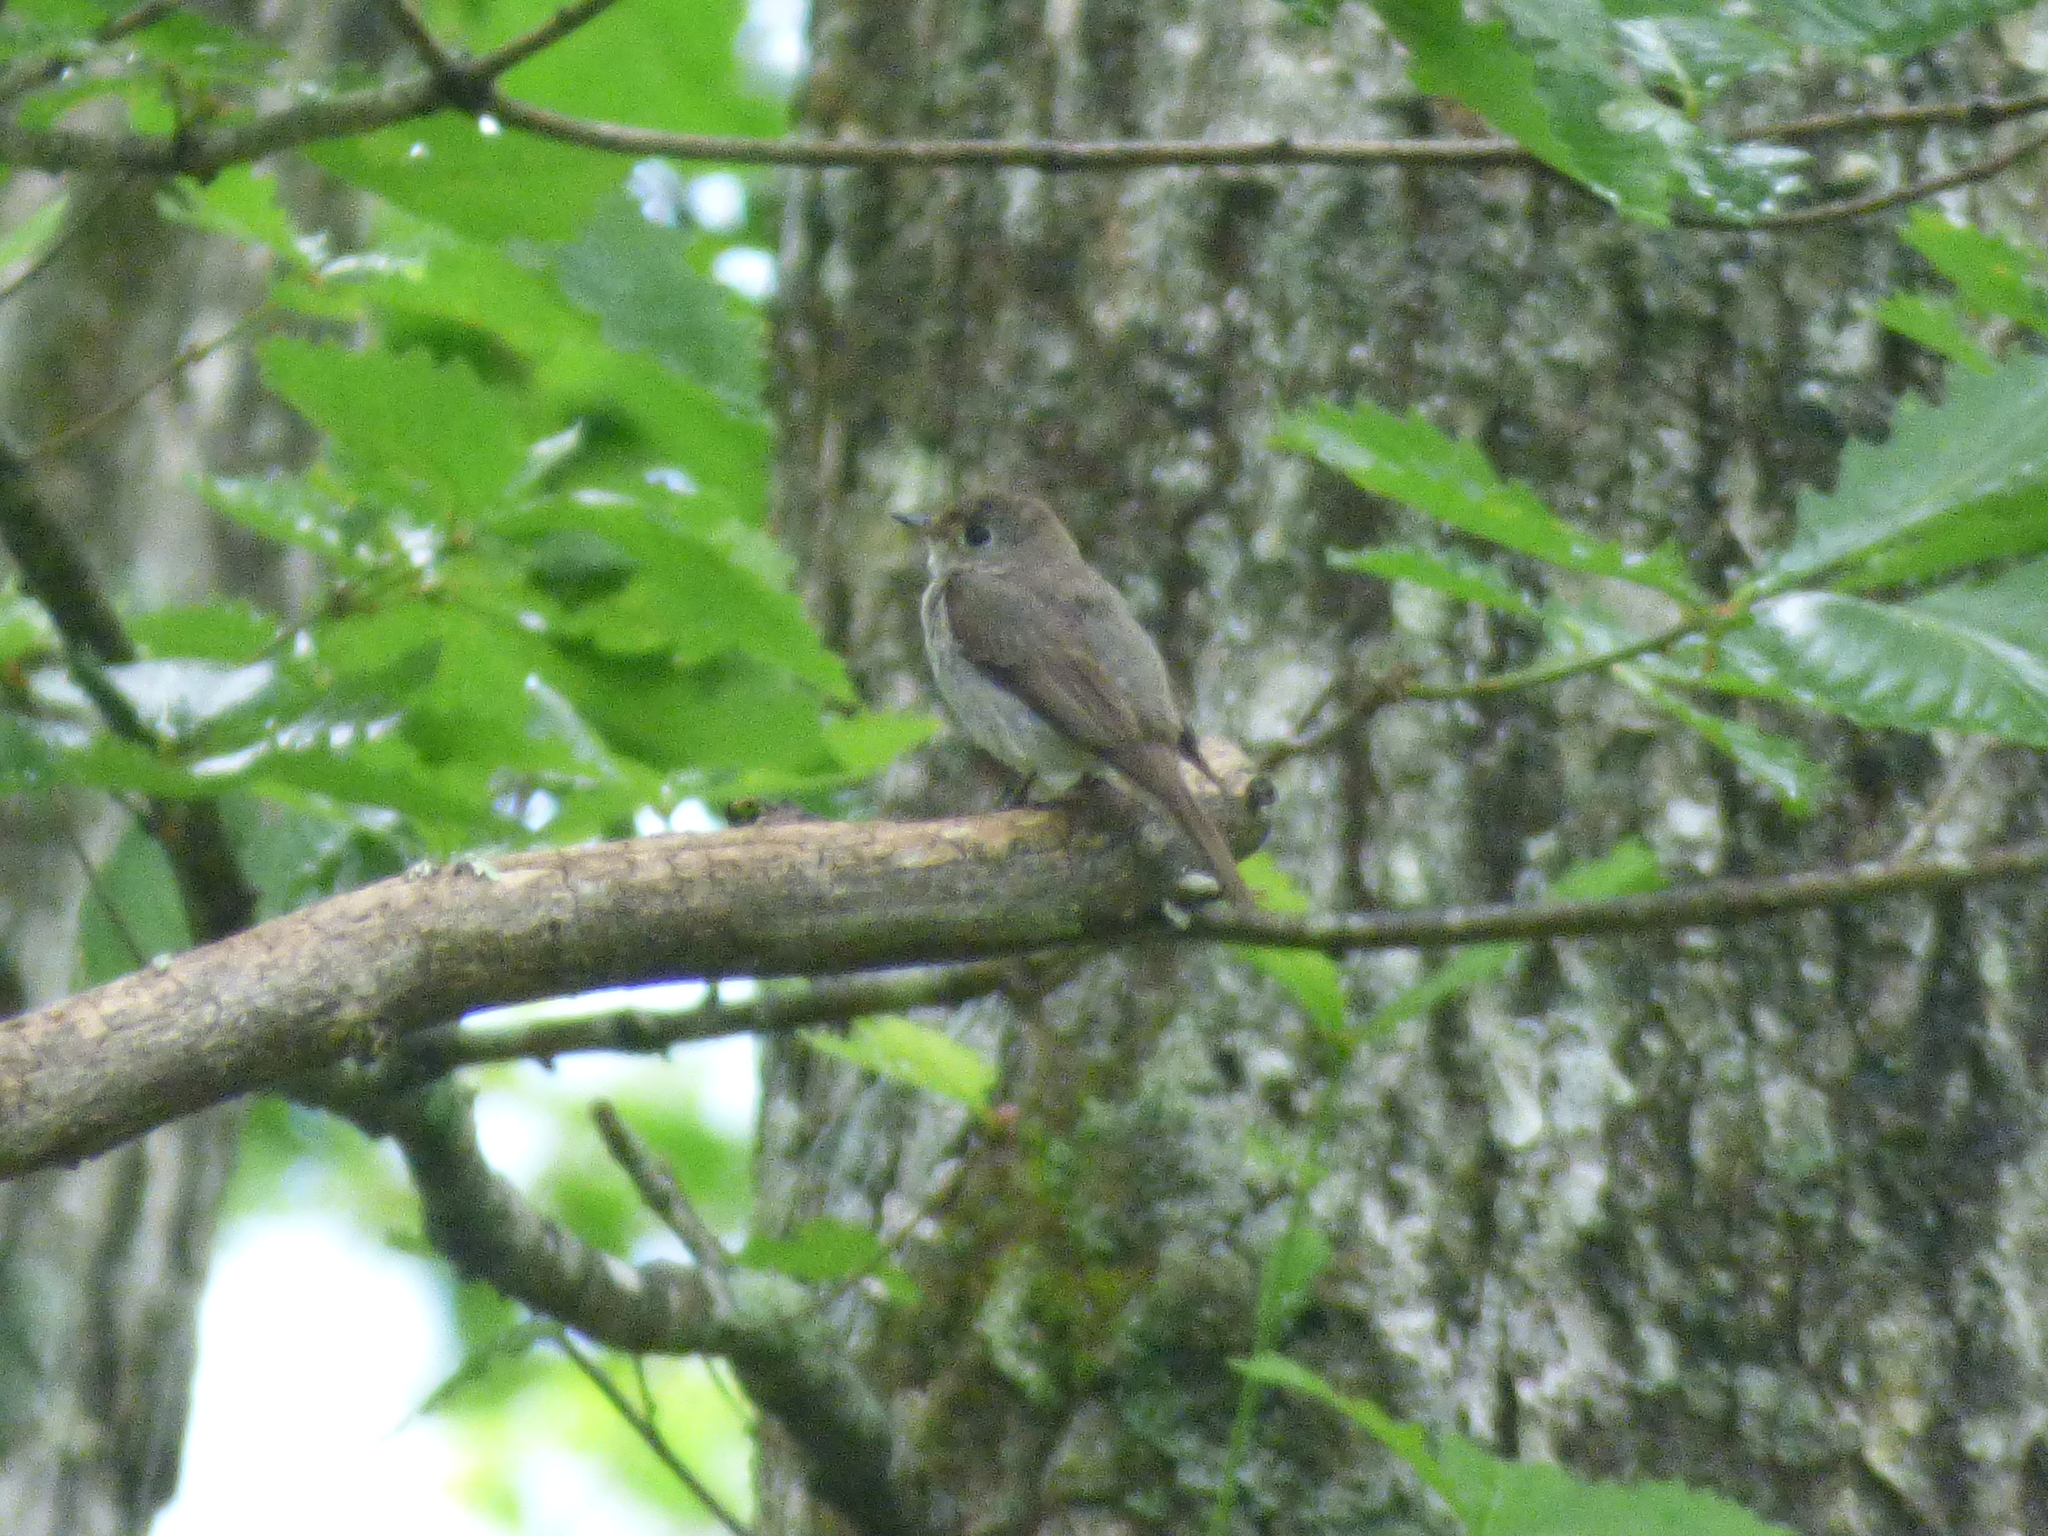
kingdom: Animalia
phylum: Chordata
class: Aves
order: Passeriformes
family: Muscicapidae
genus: Muscicapa
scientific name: Muscicapa latirostris
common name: Asian brown flycatcher
